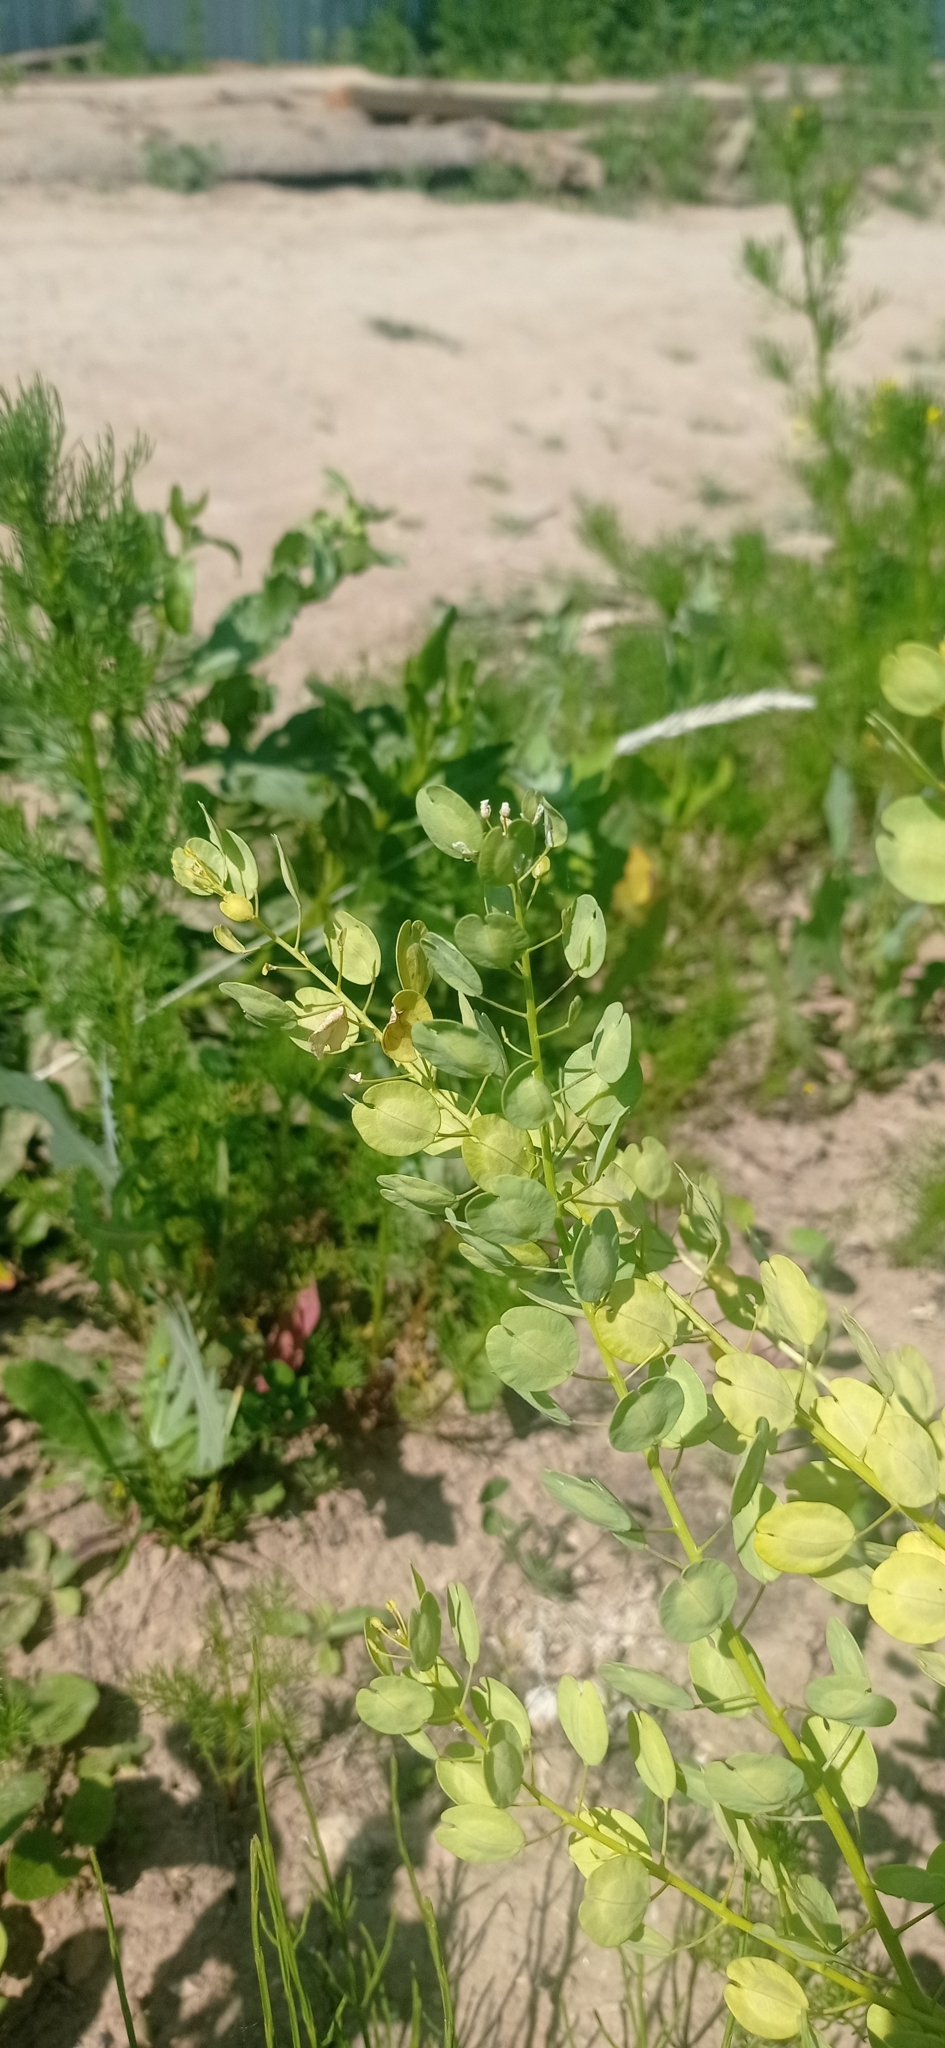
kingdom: Plantae
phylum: Tracheophyta
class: Magnoliopsida
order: Brassicales
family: Brassicaceae
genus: Thlaspi
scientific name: Thlaspi arvense
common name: Field pennycress
